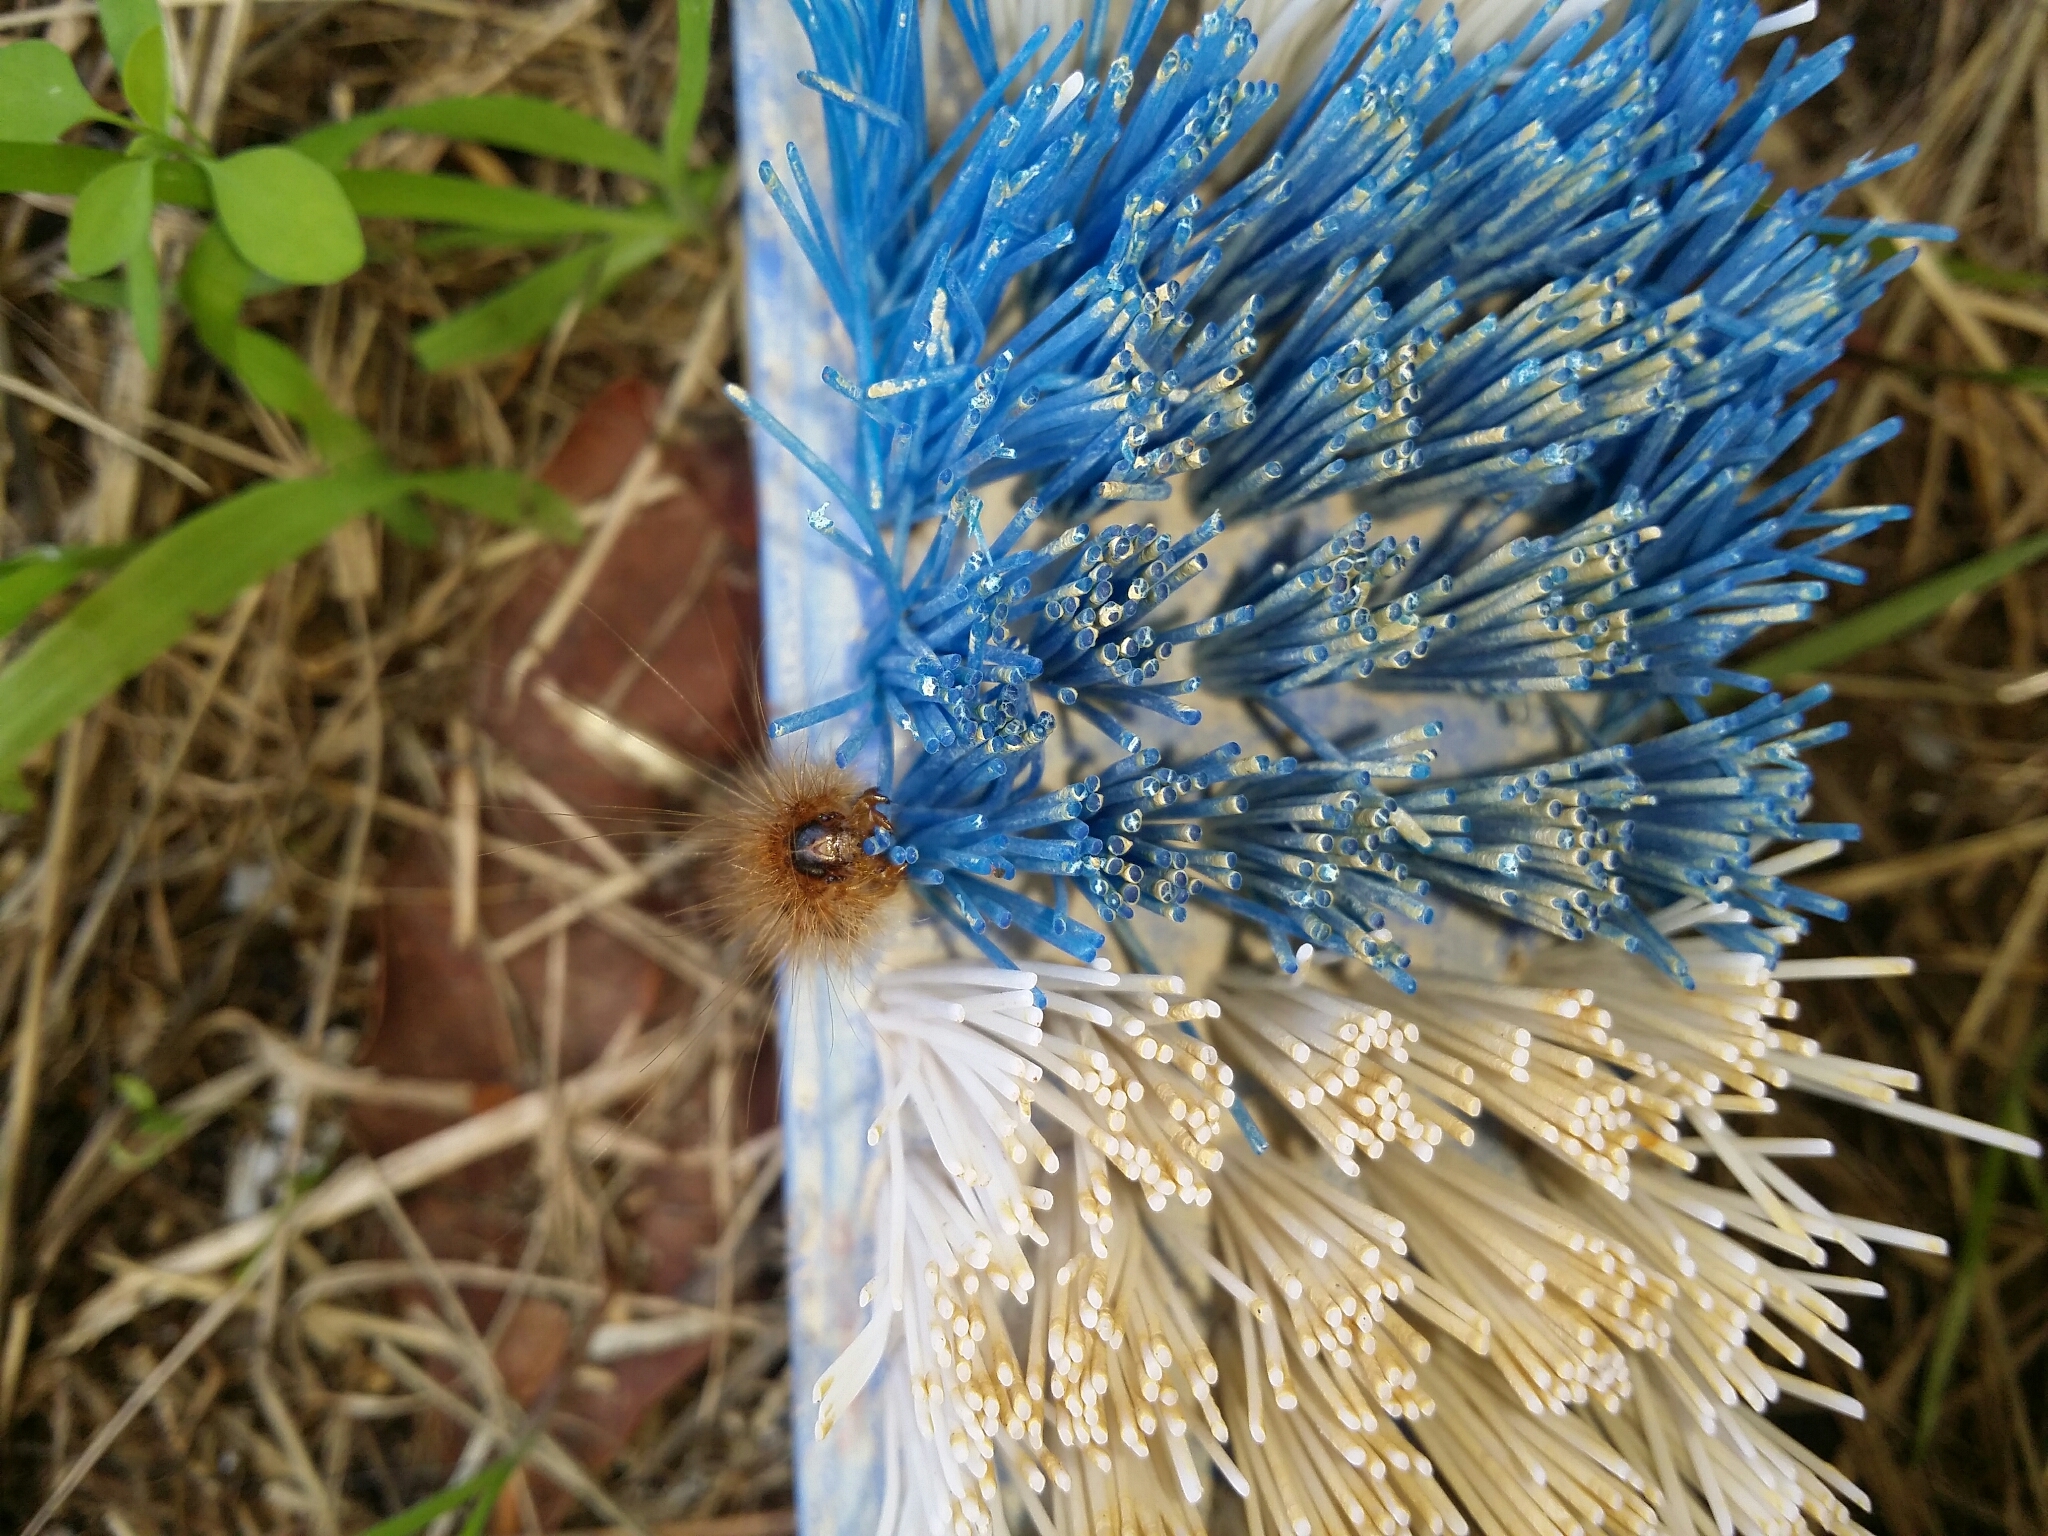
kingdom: Animalia
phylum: Arthropoda
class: Insecta
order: Lepidoptera
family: Erebidae
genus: Leptocneria
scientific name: Leptocneria reducta
